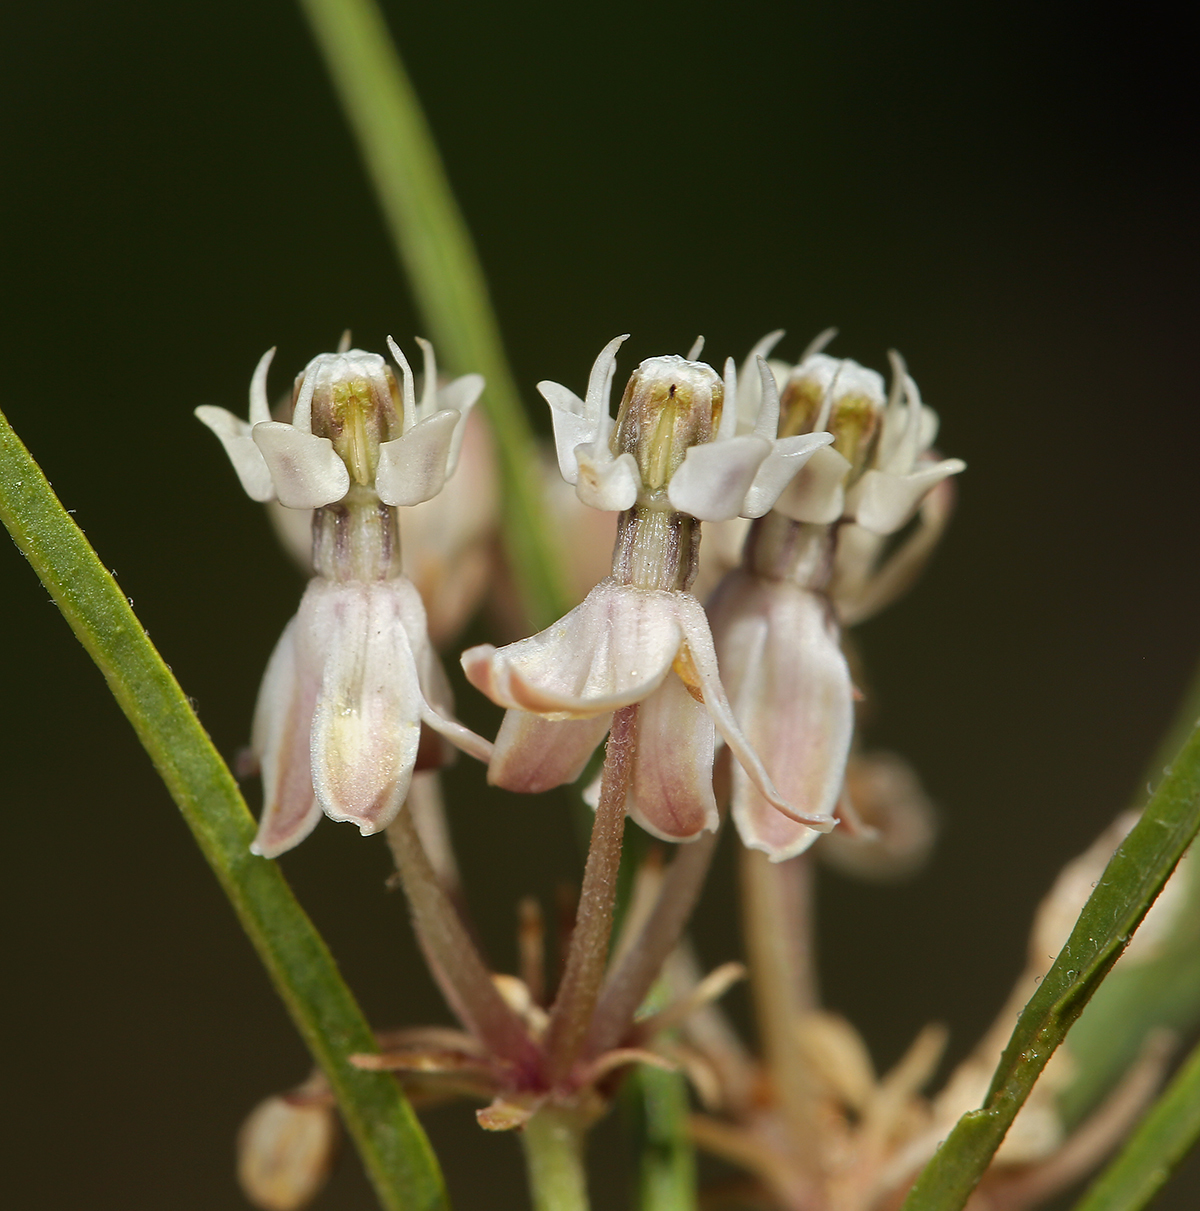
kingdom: Plantae
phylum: Tracheophyta
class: Magnoliopsida
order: Gentianales
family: Apocynaceae
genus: Asclepias
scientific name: Asclepias fascicularis
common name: Mexican milkweed
